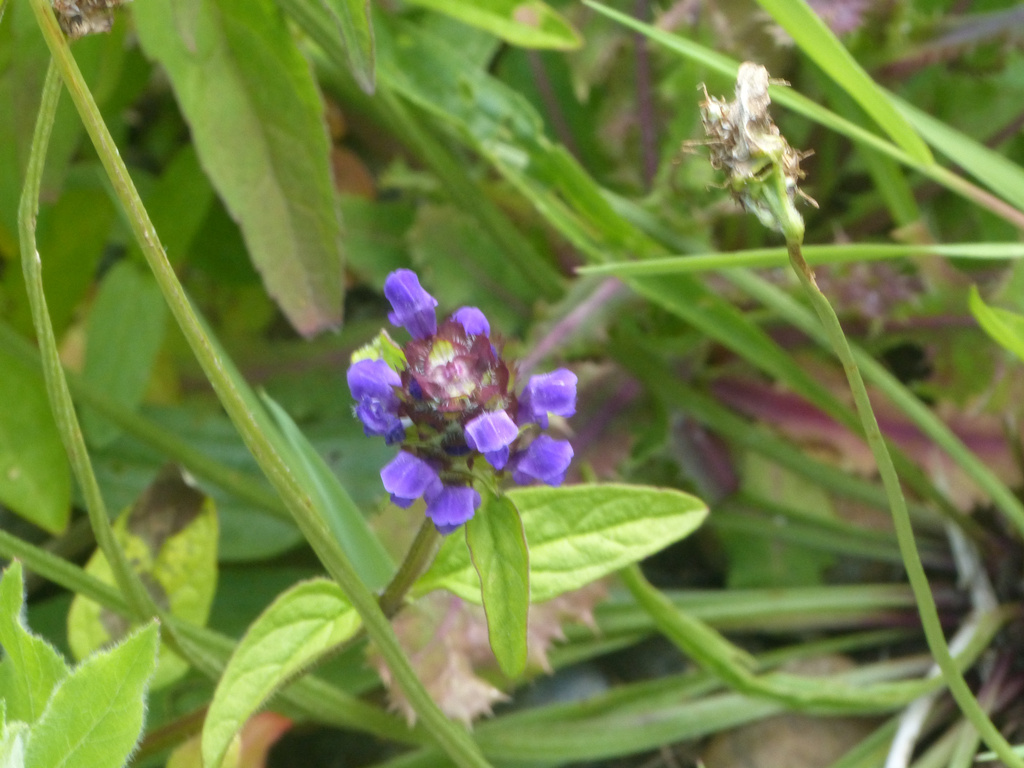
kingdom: Plantae
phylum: Tracheophyta
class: Magnoliopsida
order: Lamiales
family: Lamiaceae
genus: Prunella
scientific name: Prunella vulgaris
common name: Heal-all
